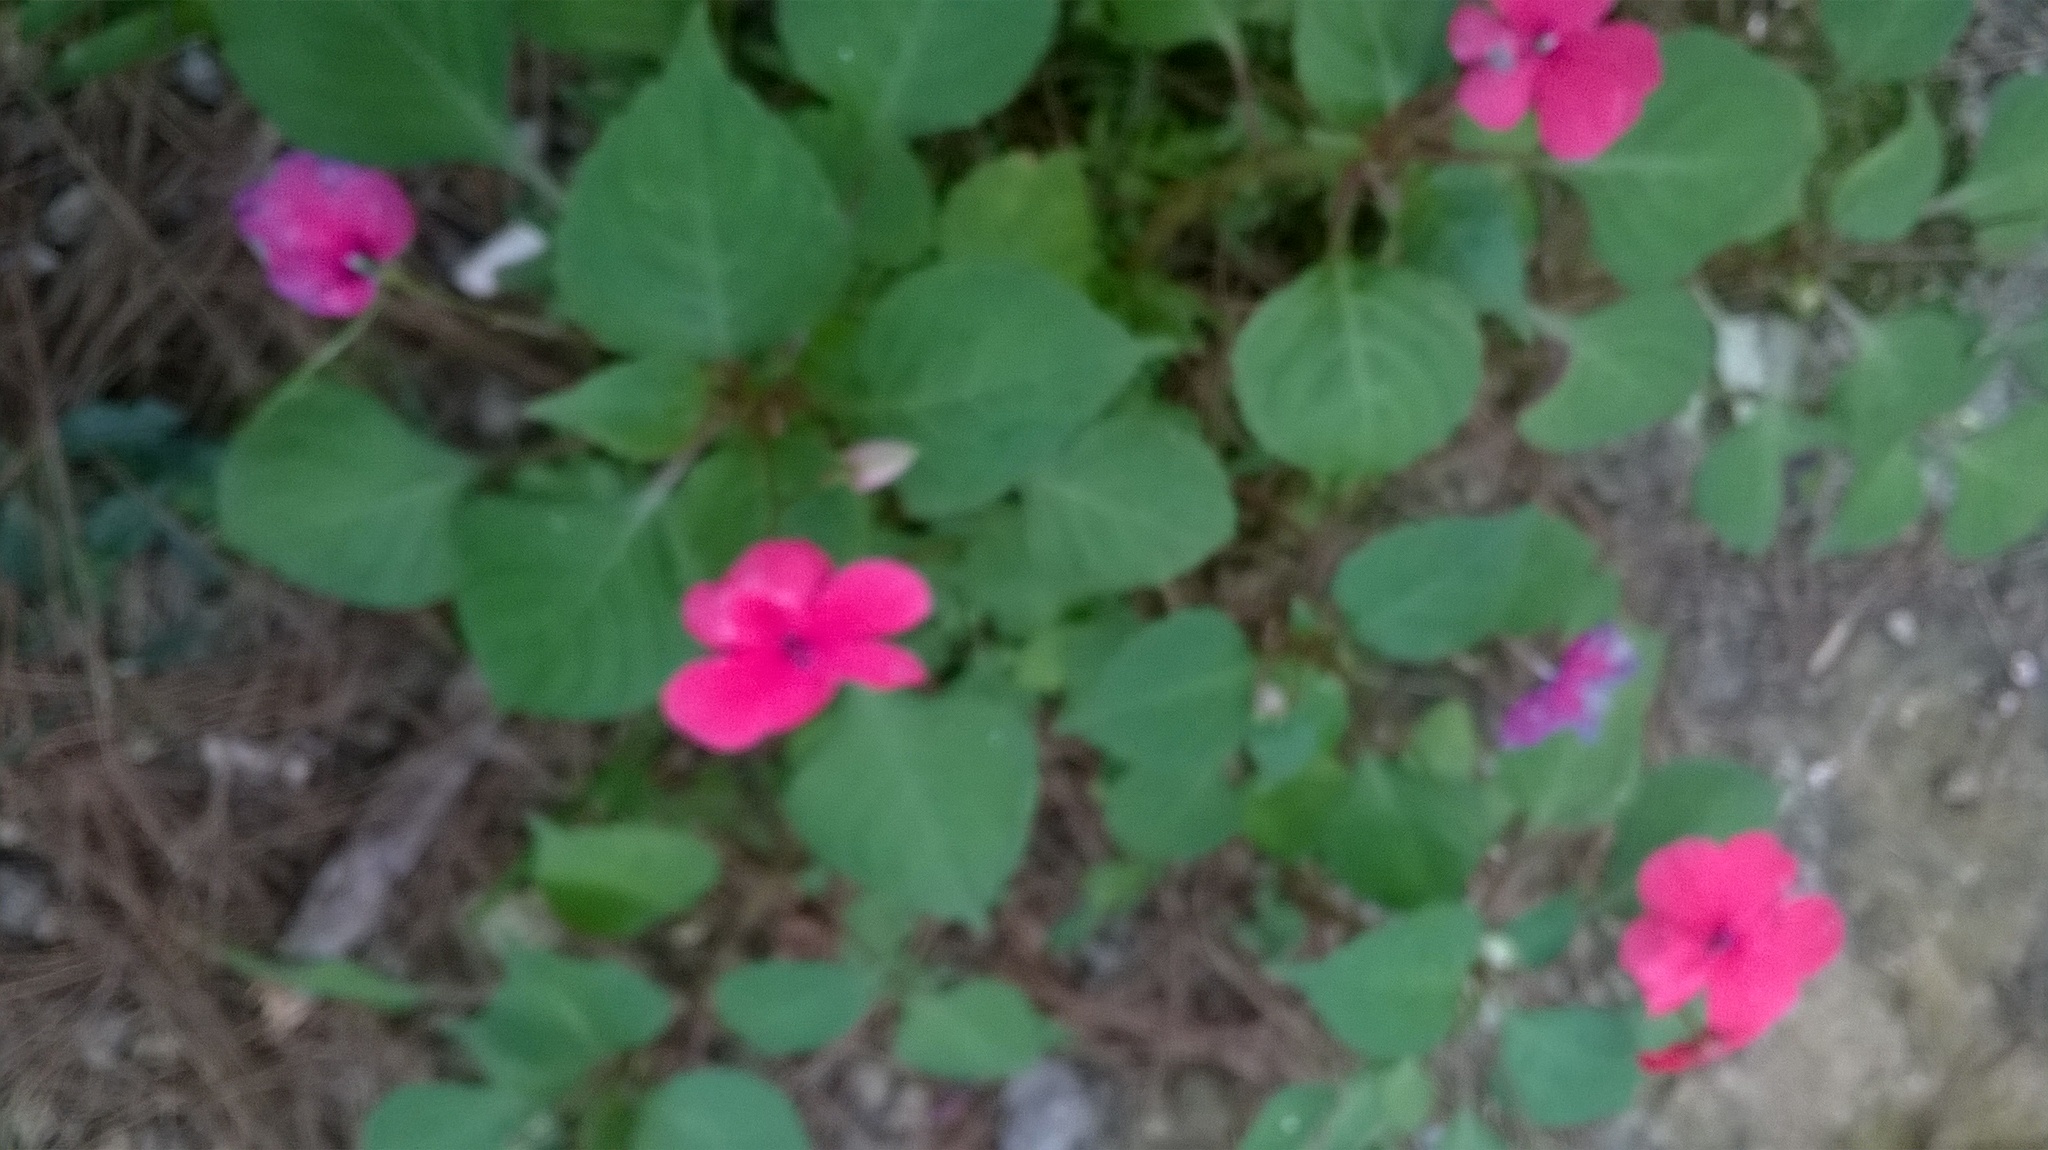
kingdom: Plantae
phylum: Tracheophyta
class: Magnoliopsida
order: Ericales
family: Balsaminaceae
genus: Impatiens
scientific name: Impatiens walleriana
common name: Buzzy lizzy
